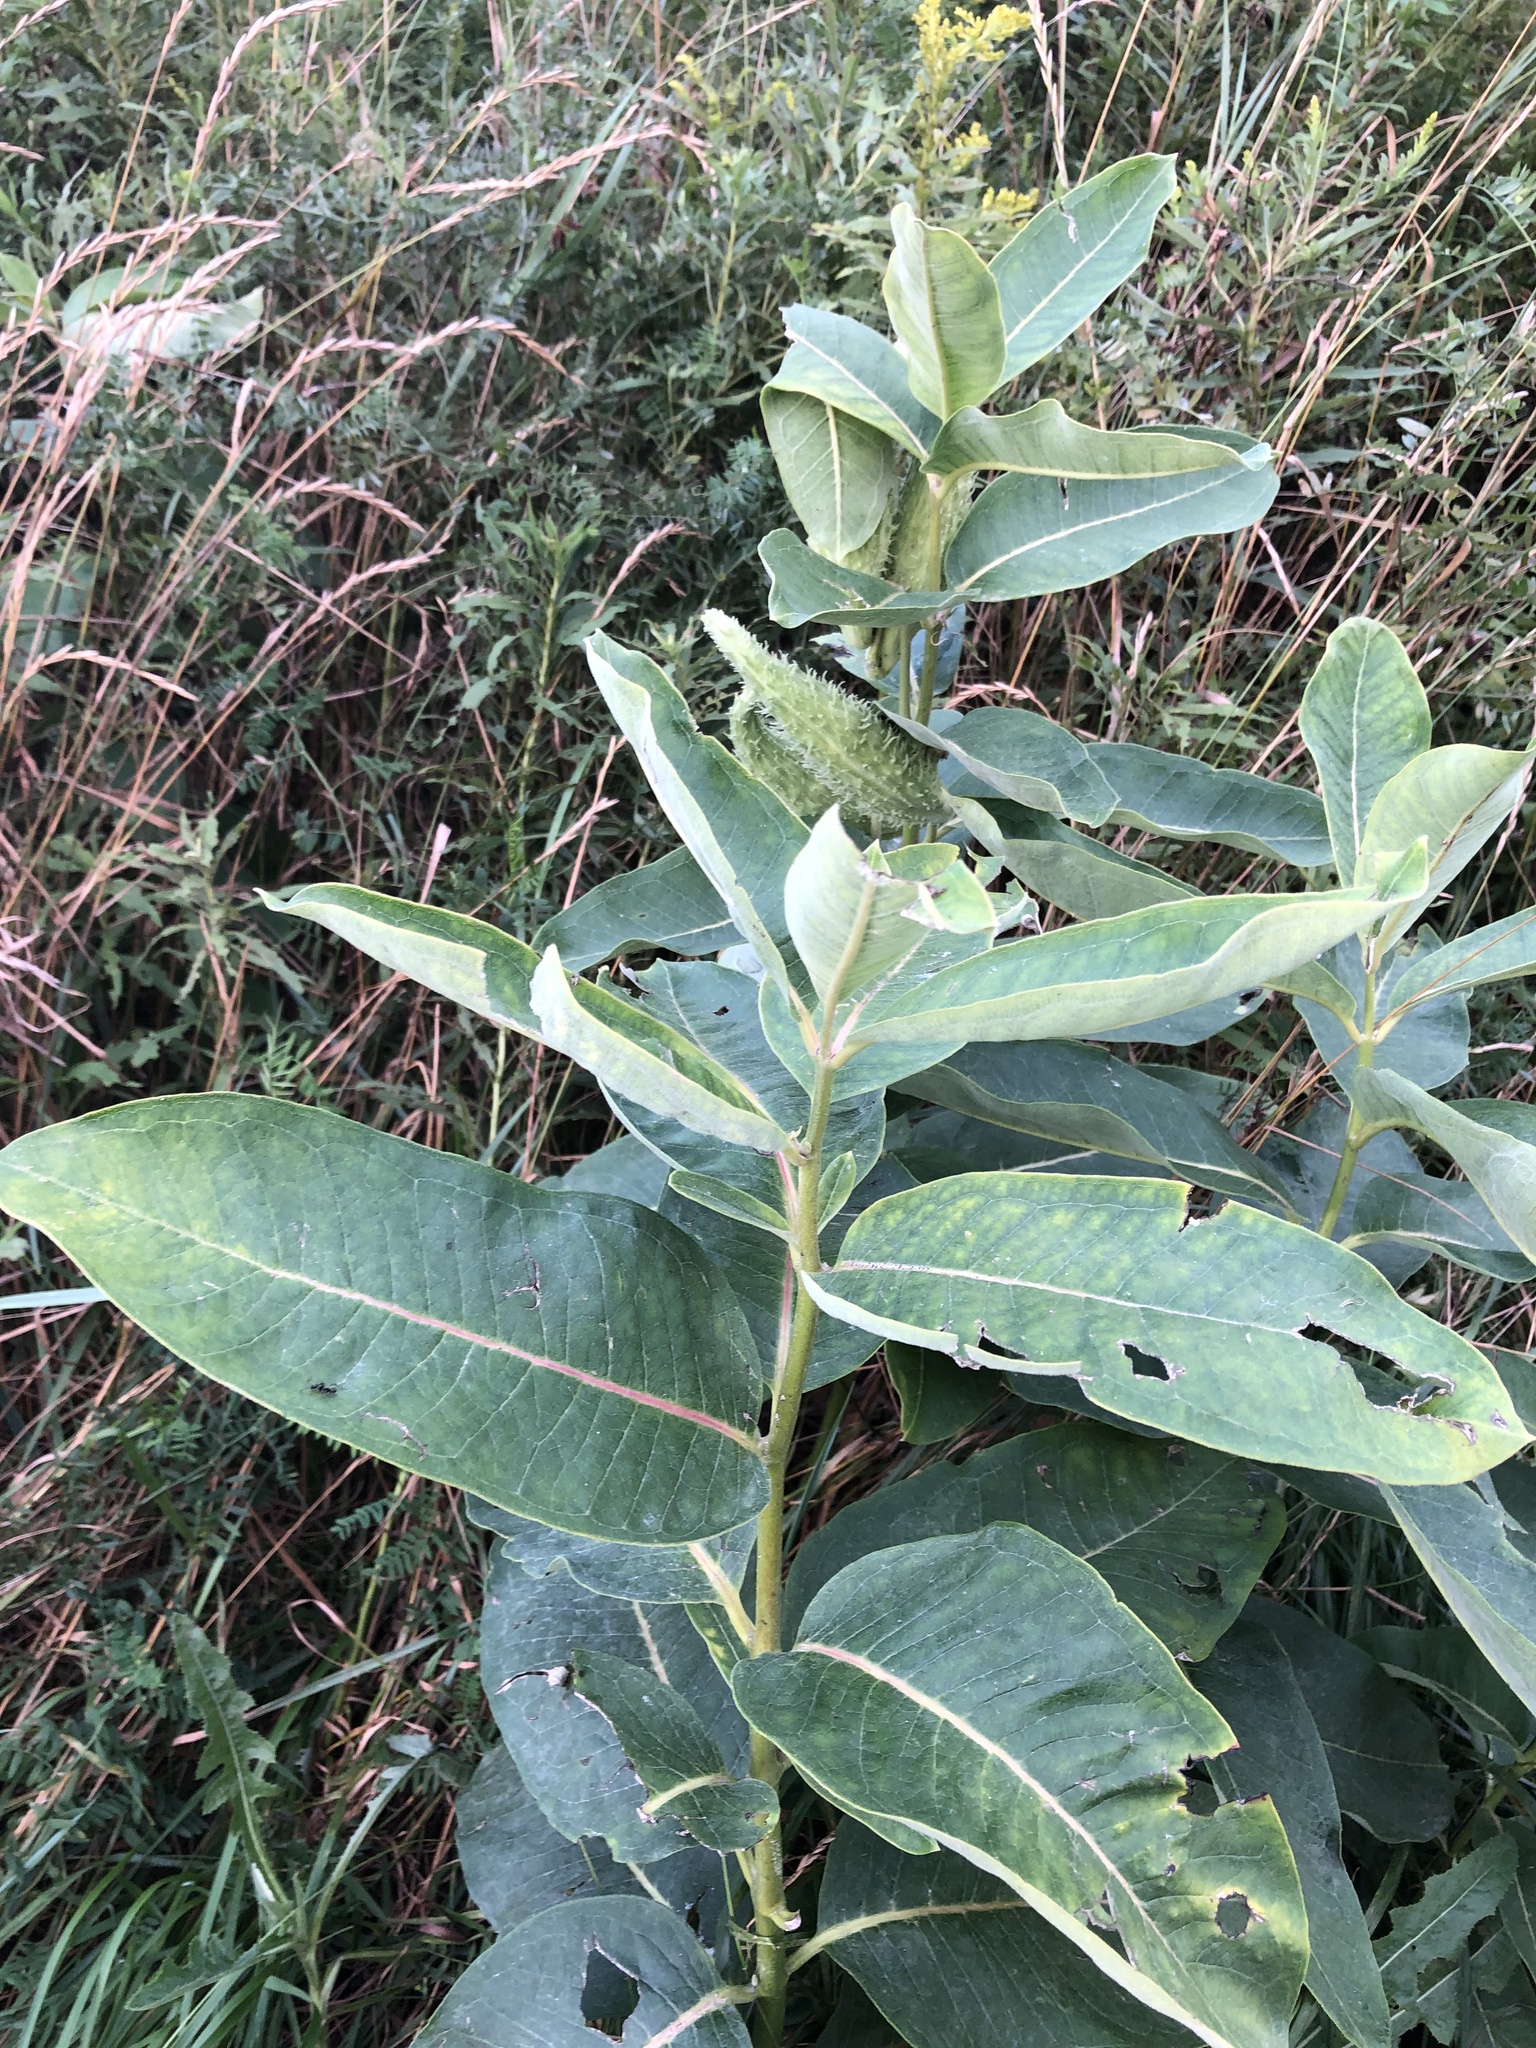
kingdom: Plantae
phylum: Tracheophyta
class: Magnoliopsida
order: Gentianales
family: Apocynaceae
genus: Asclepias
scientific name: Asclepias syriaca
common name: Common milkweed
